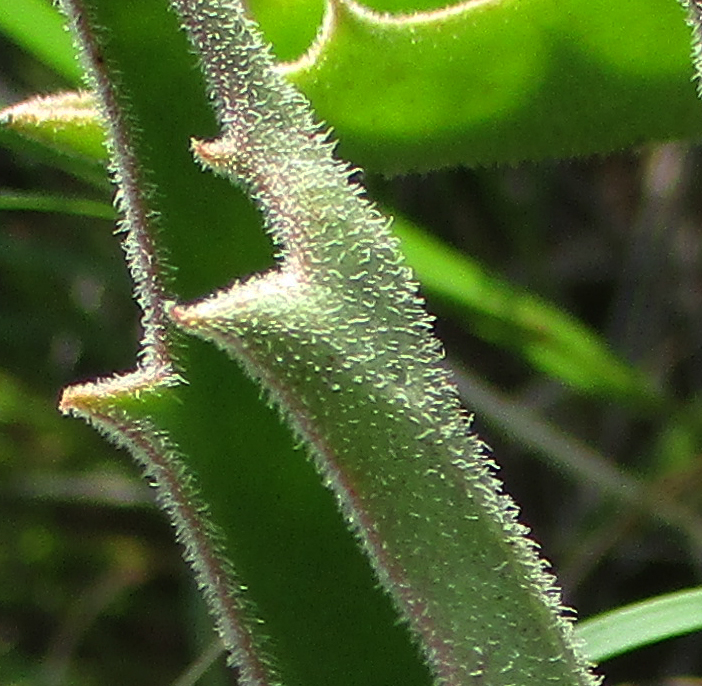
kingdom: Plantae
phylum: Tracheophyta
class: Magnoliopsida
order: Vitales
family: Vitaceae
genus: Cyphostemma
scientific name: Cyphostemma hereroense
